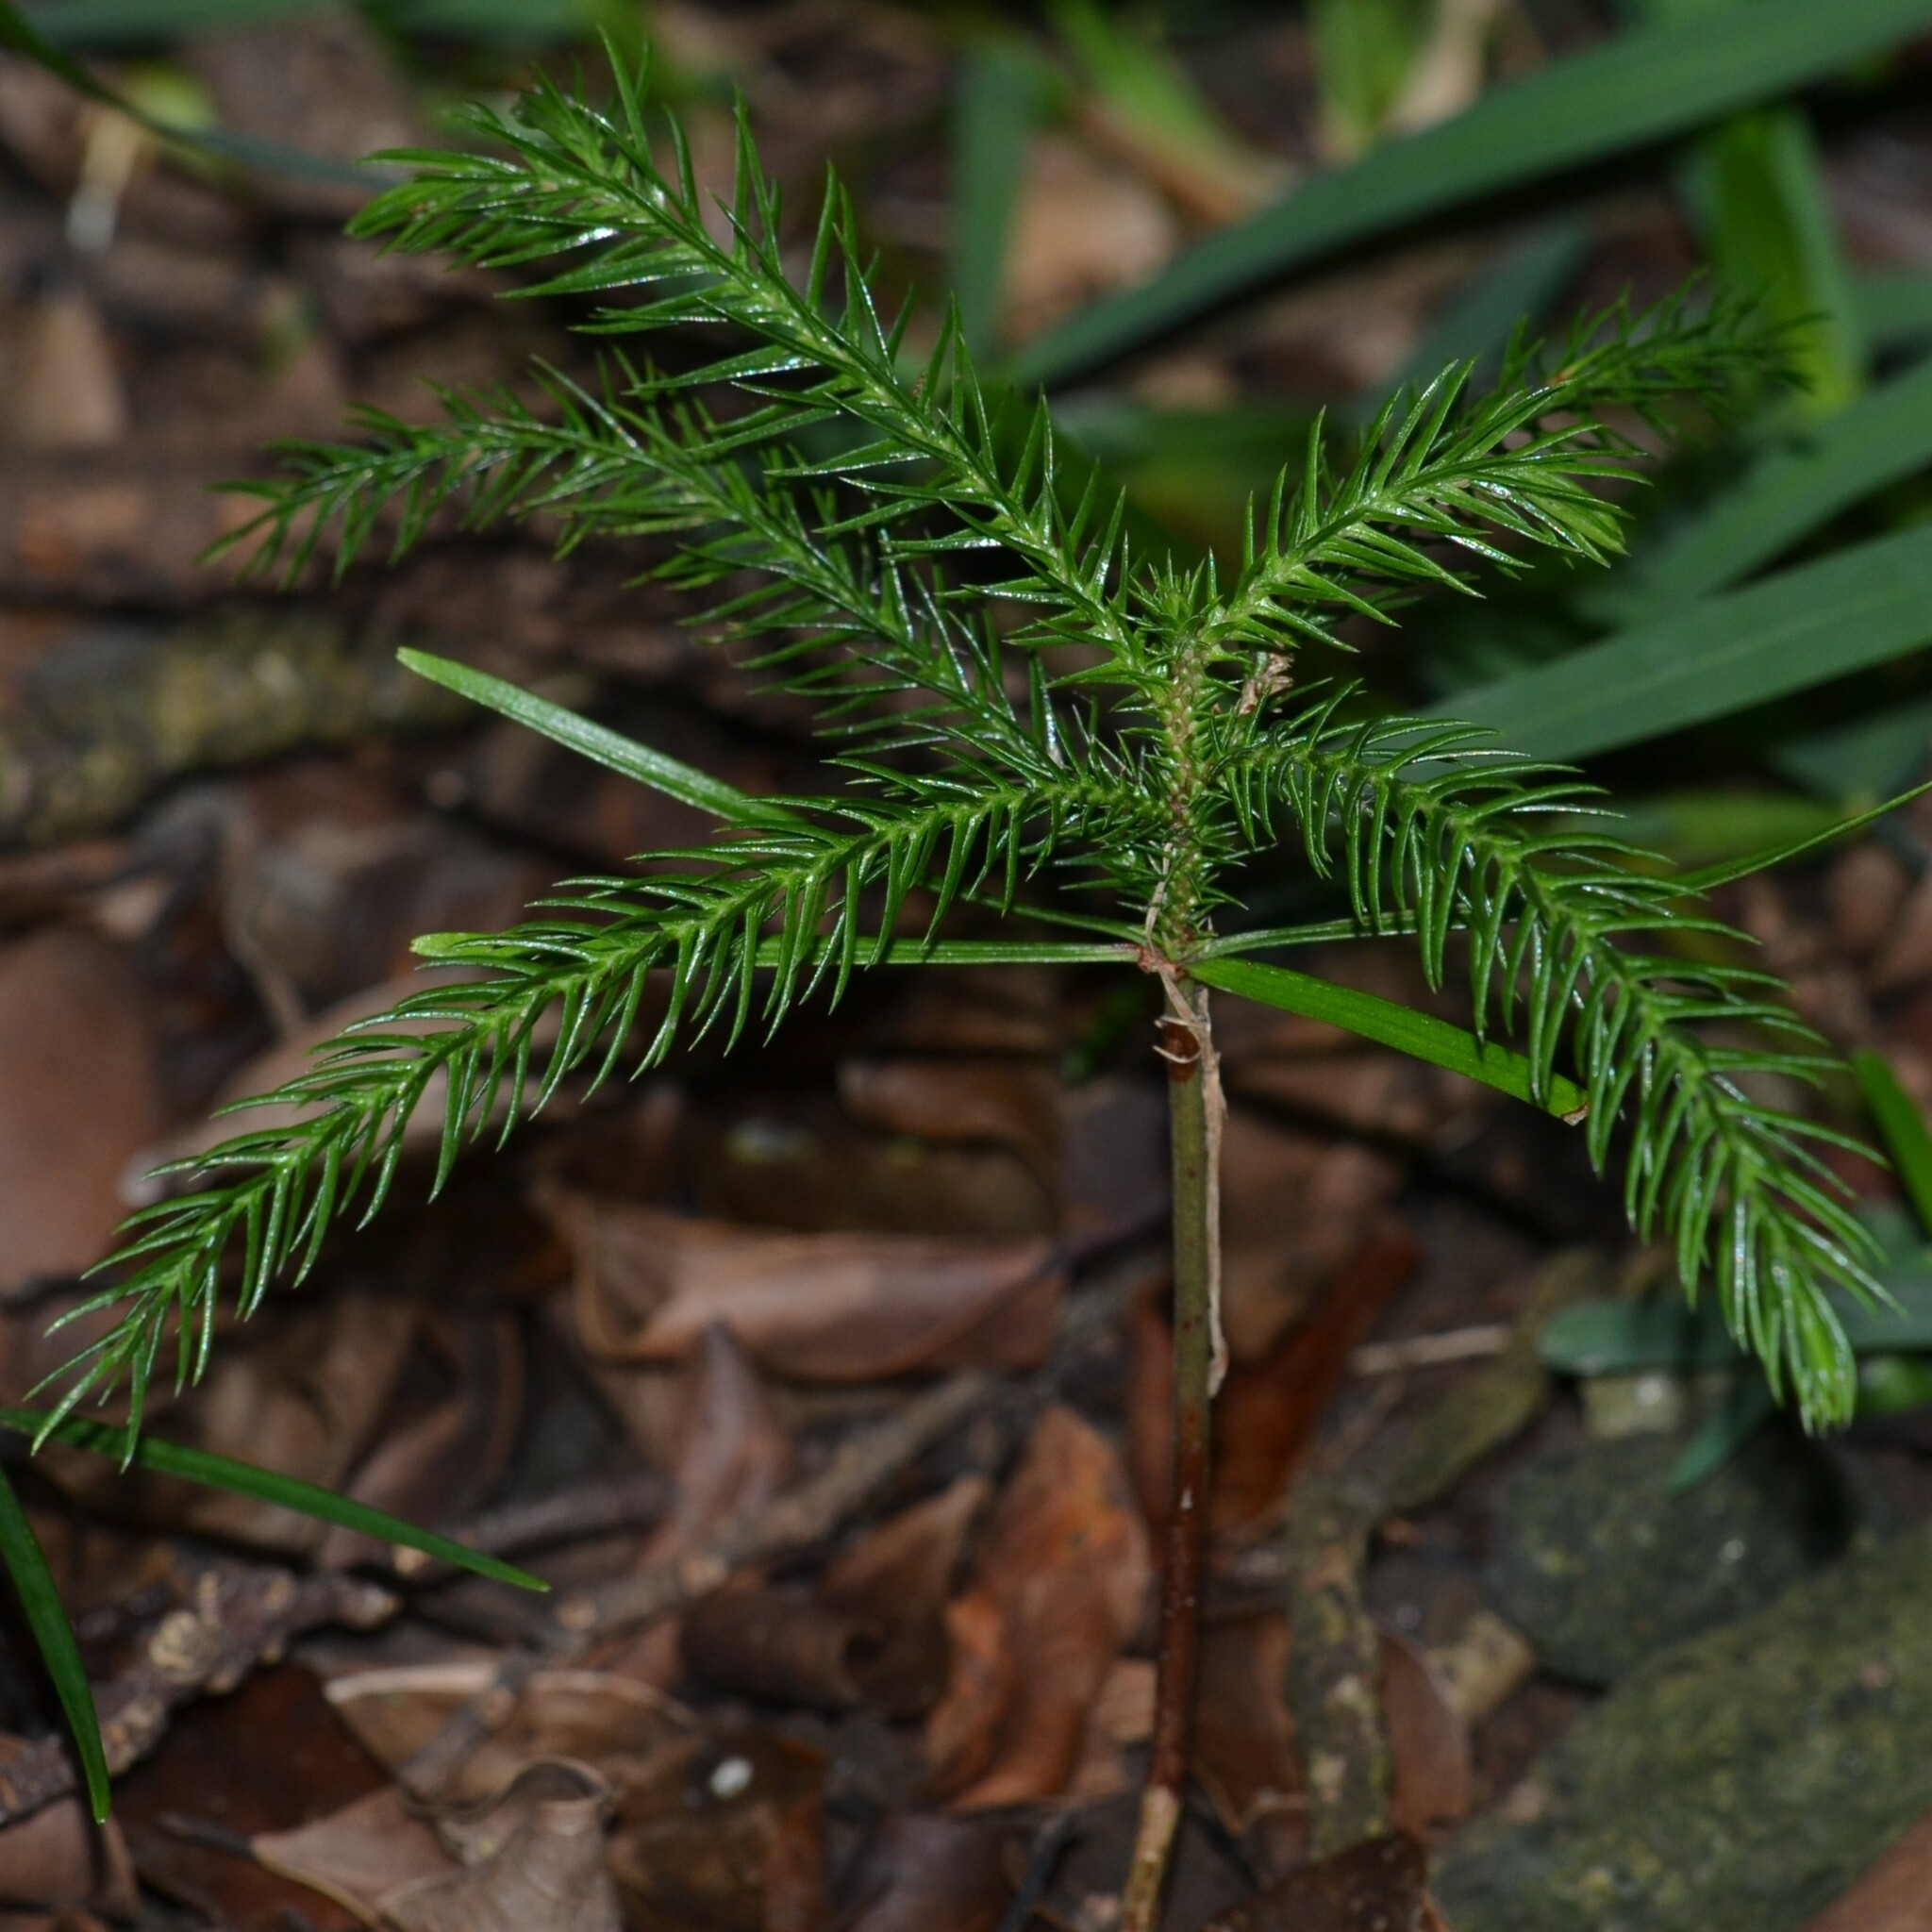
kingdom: Plantae
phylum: Tracheophyta
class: Pinopsida
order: Pinales
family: Araucariaceae
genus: Araucaria
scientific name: Araucaria columnaris
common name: Coral reef araucaria
